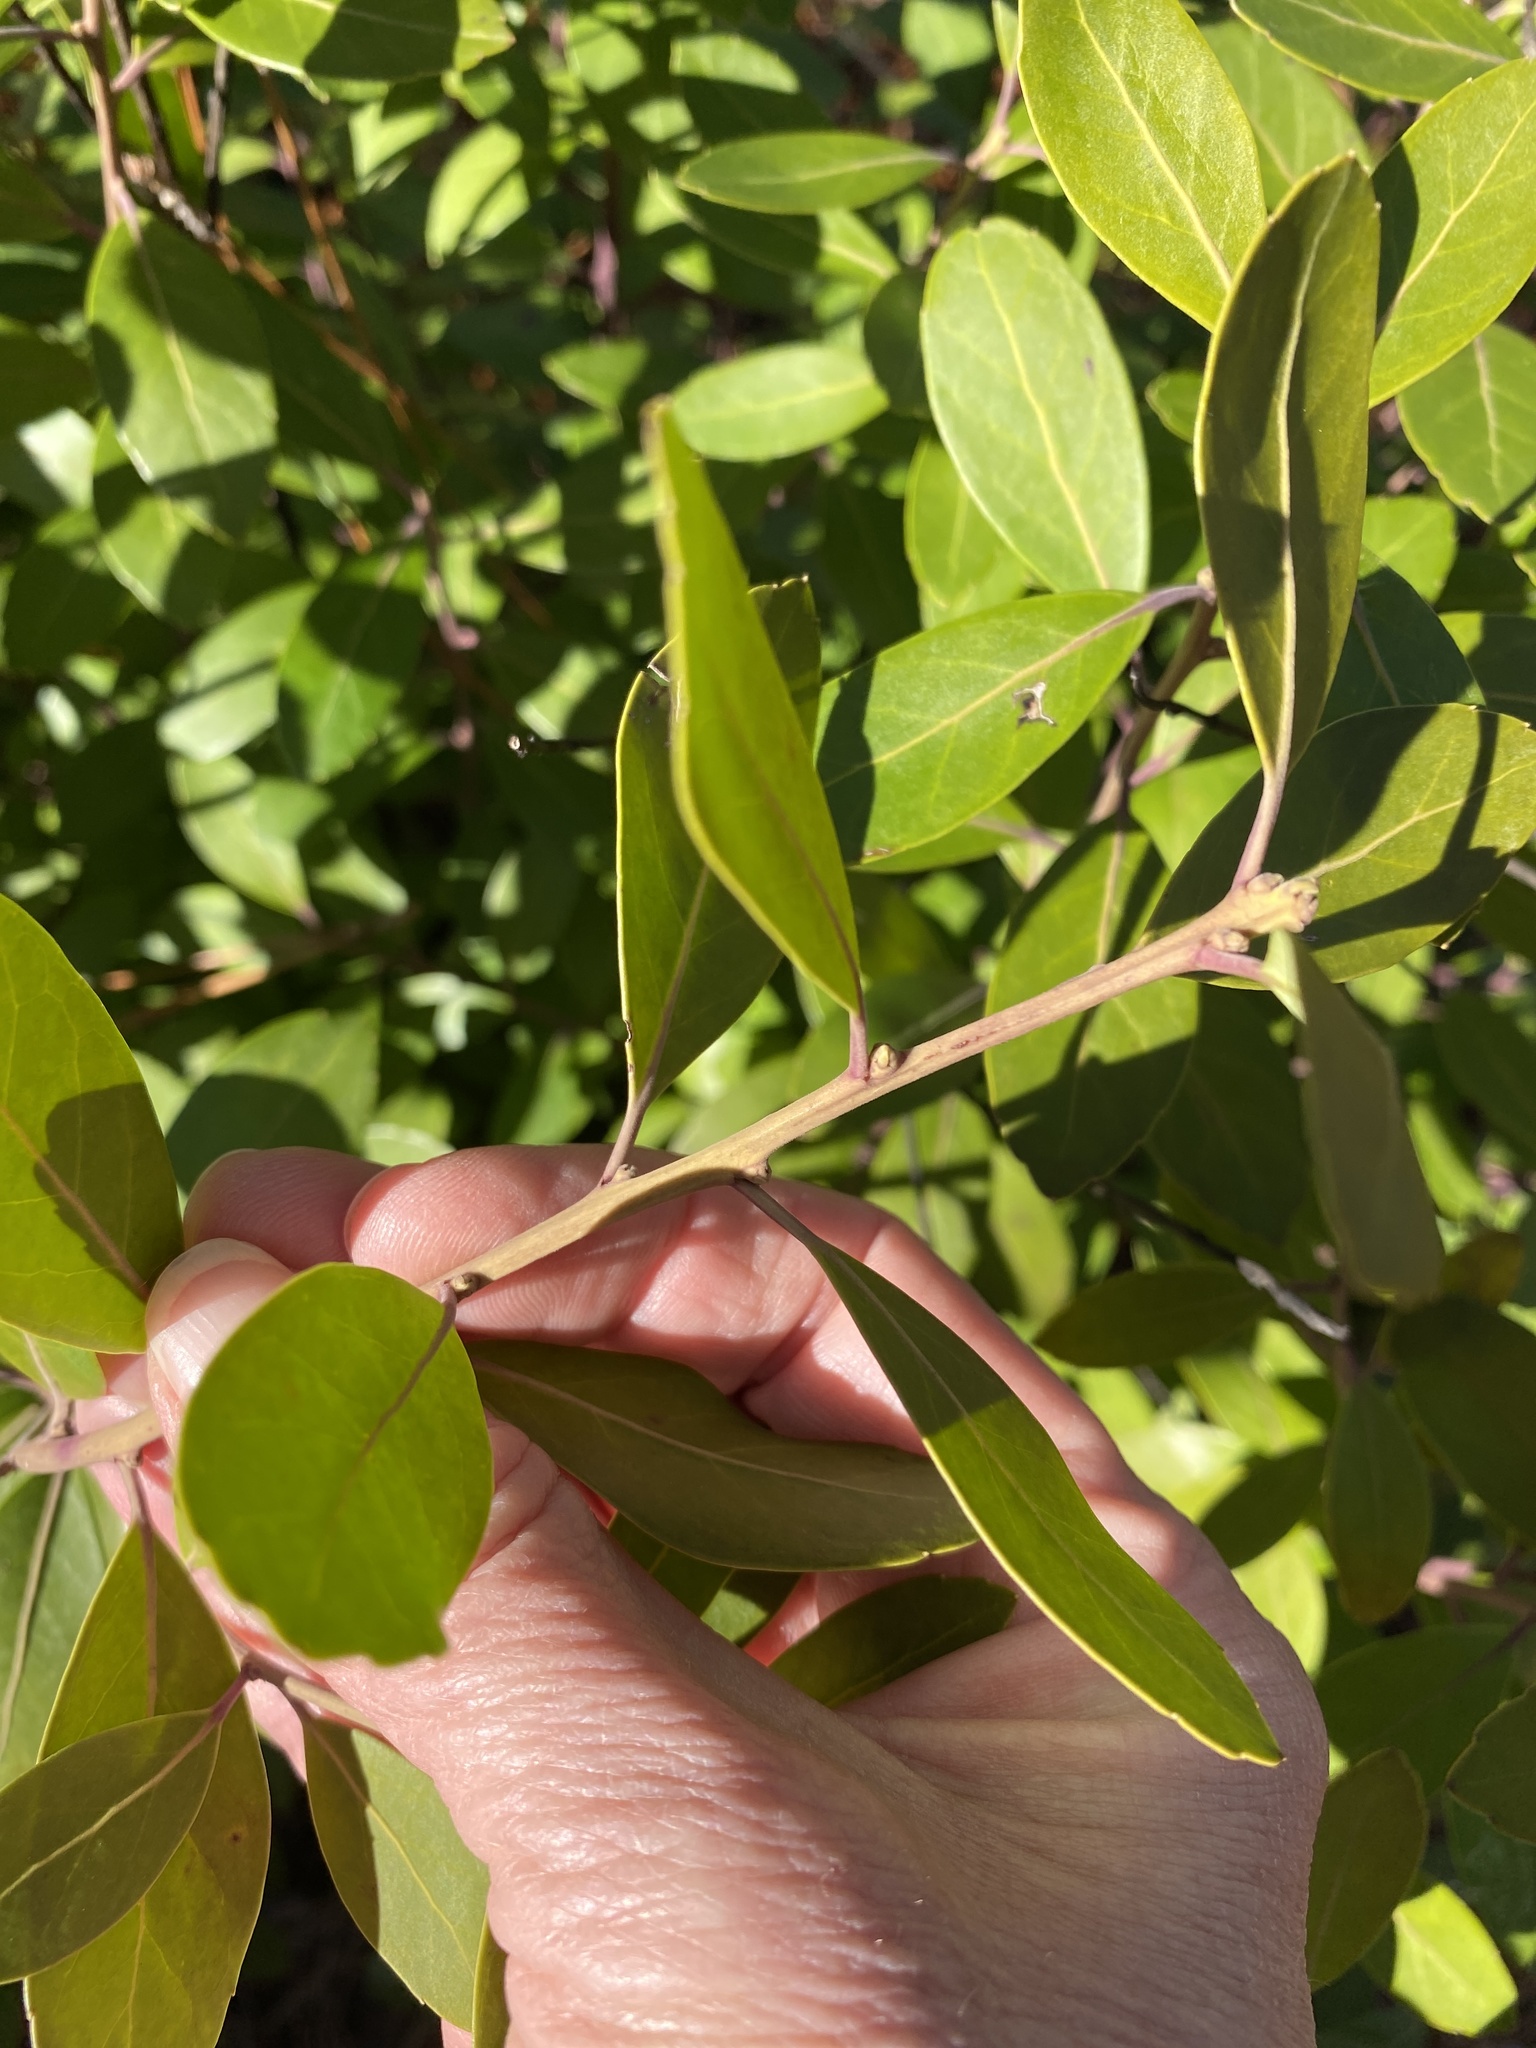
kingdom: Plantae
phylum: Tracheophyta
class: Magnoliopsida
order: Aquifoliales
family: Aquifoliaceae
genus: Ilex
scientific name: Ilex glabra
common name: Bitter gallberry
